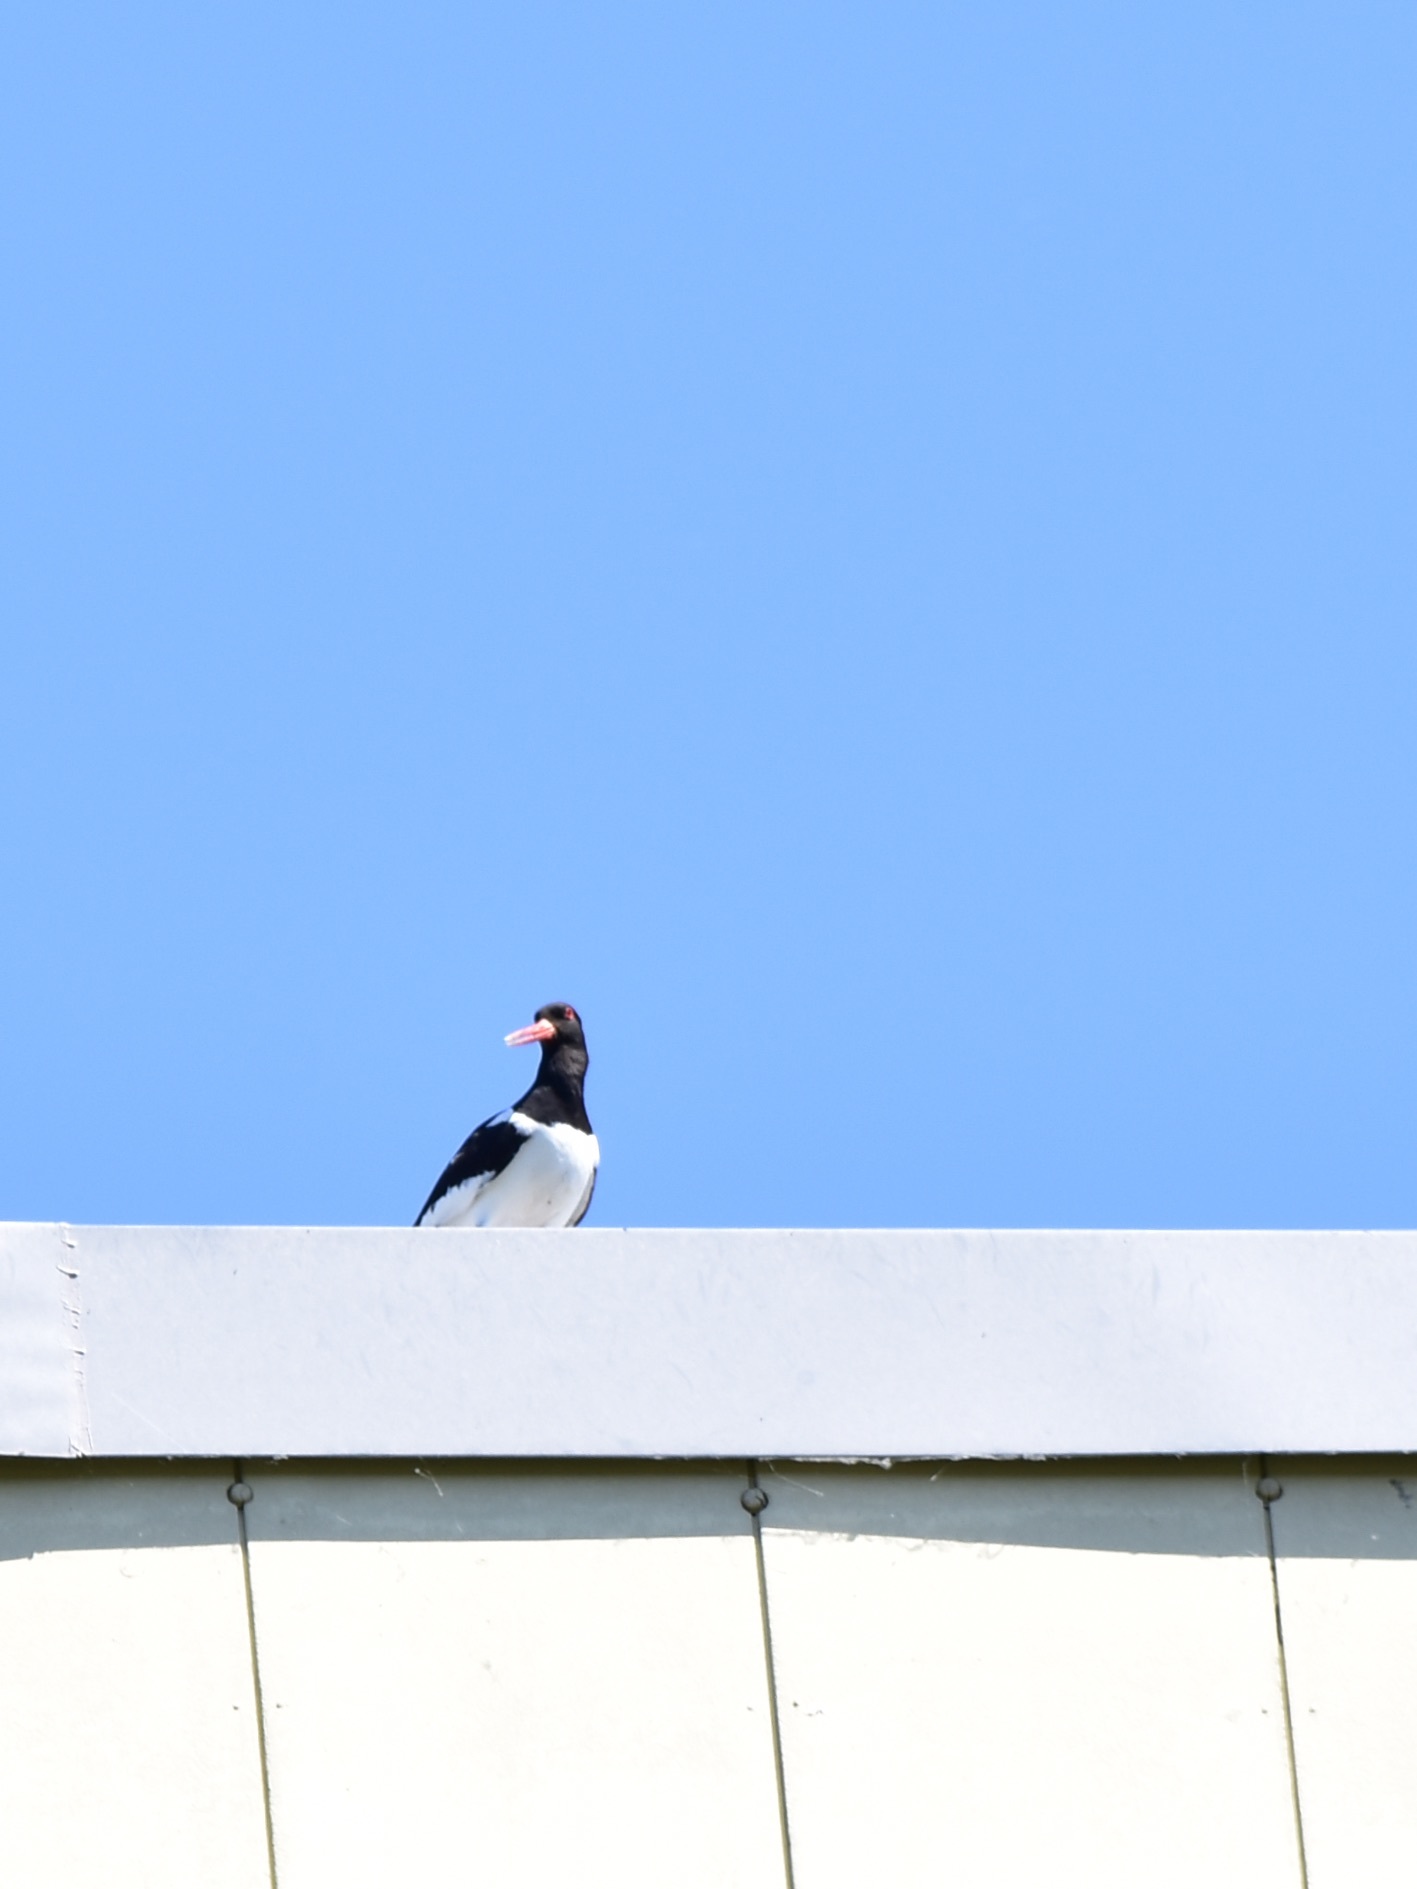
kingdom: Animalia
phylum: Chordata
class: Aves
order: Charadriiformes
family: Haematopodidae
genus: Haematopus
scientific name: Haematopus ostralegus
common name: Eurasian oystercatcher
